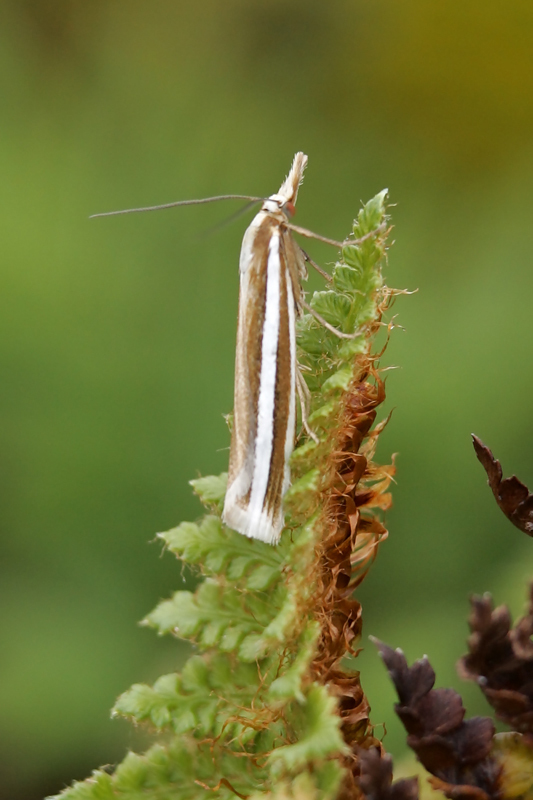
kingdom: Animalia
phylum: Arthropoda
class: Insecta
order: Lepidoptera
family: Crambidae
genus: Orocrambus
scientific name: Orocrambus siriellus
